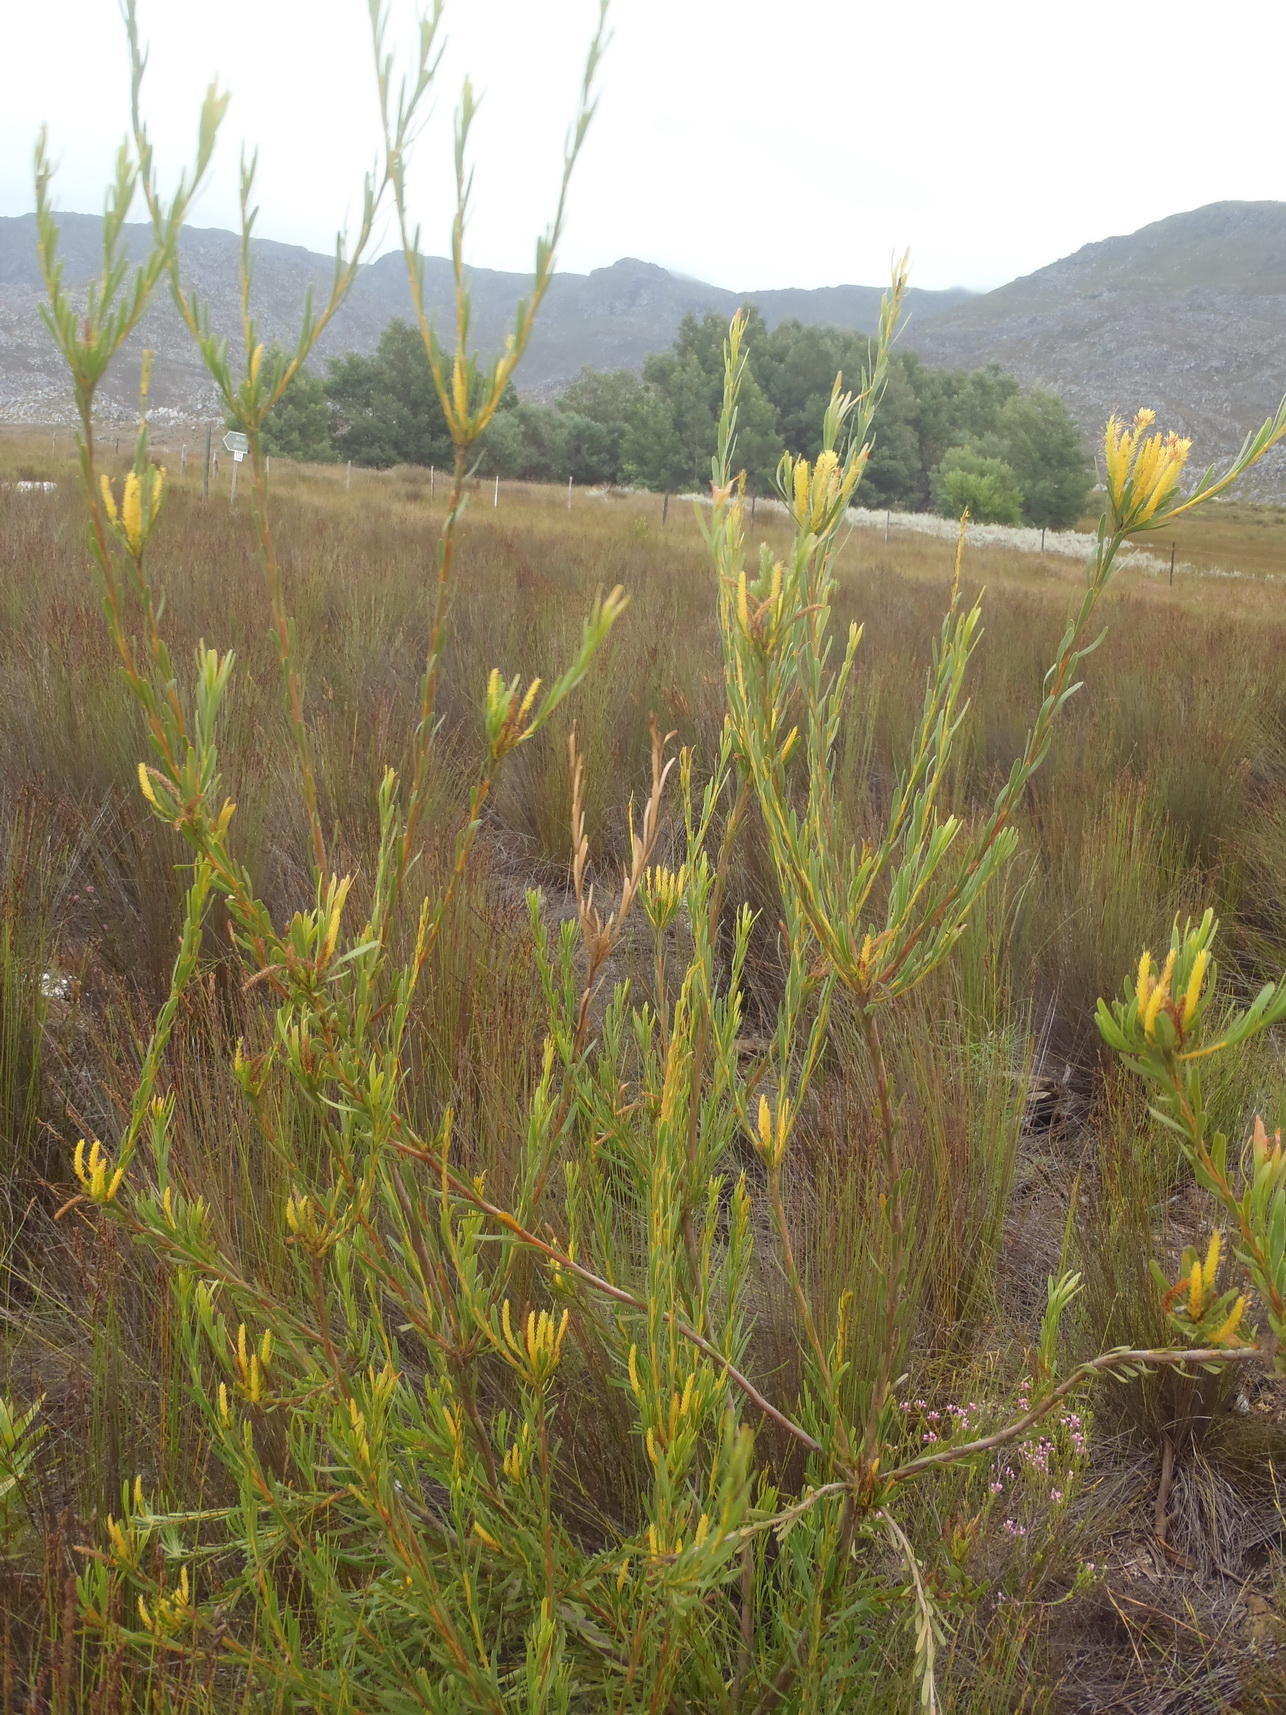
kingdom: Plantae
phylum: Tracheophyta
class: Magnoliopsida
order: Proteales
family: Proteaceae
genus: Aulax
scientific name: Aulax umbellata
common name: Broad-leaf featherbush
